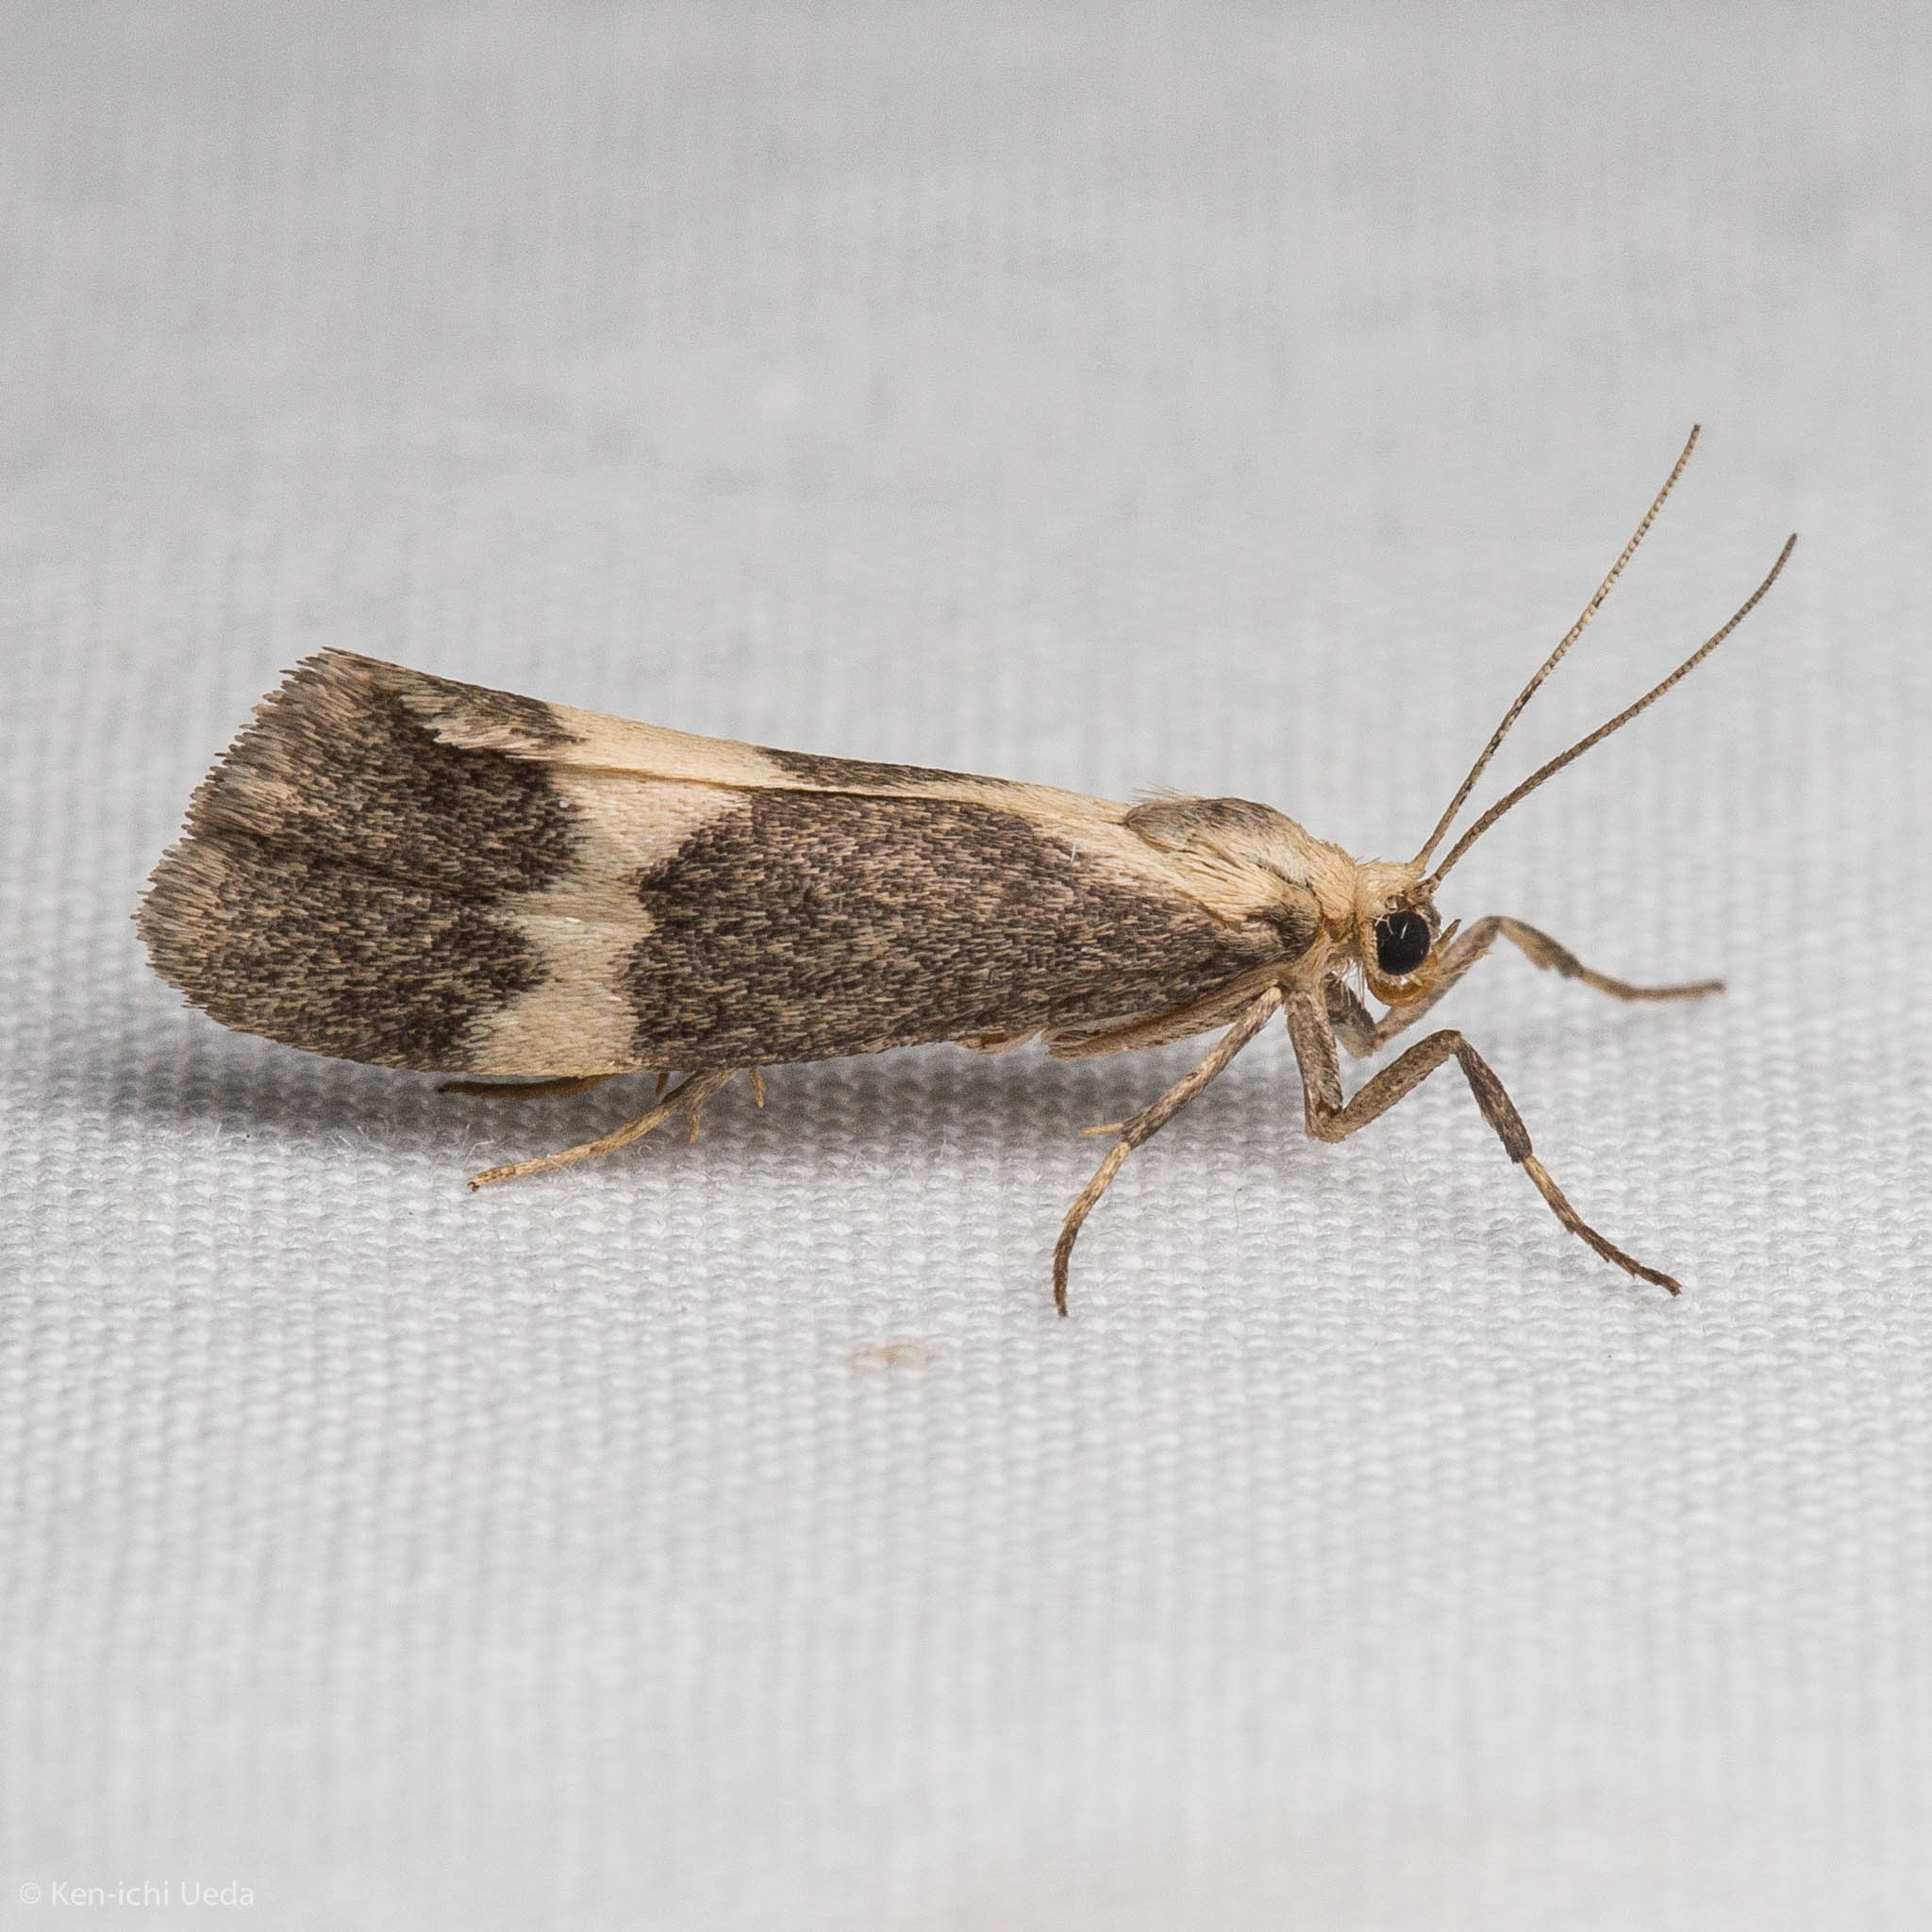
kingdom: Animalia
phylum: Arthropoda
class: Insecta
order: Lepidoptera
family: Erebidae
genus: Cisthene
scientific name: Cisthene faustinula
